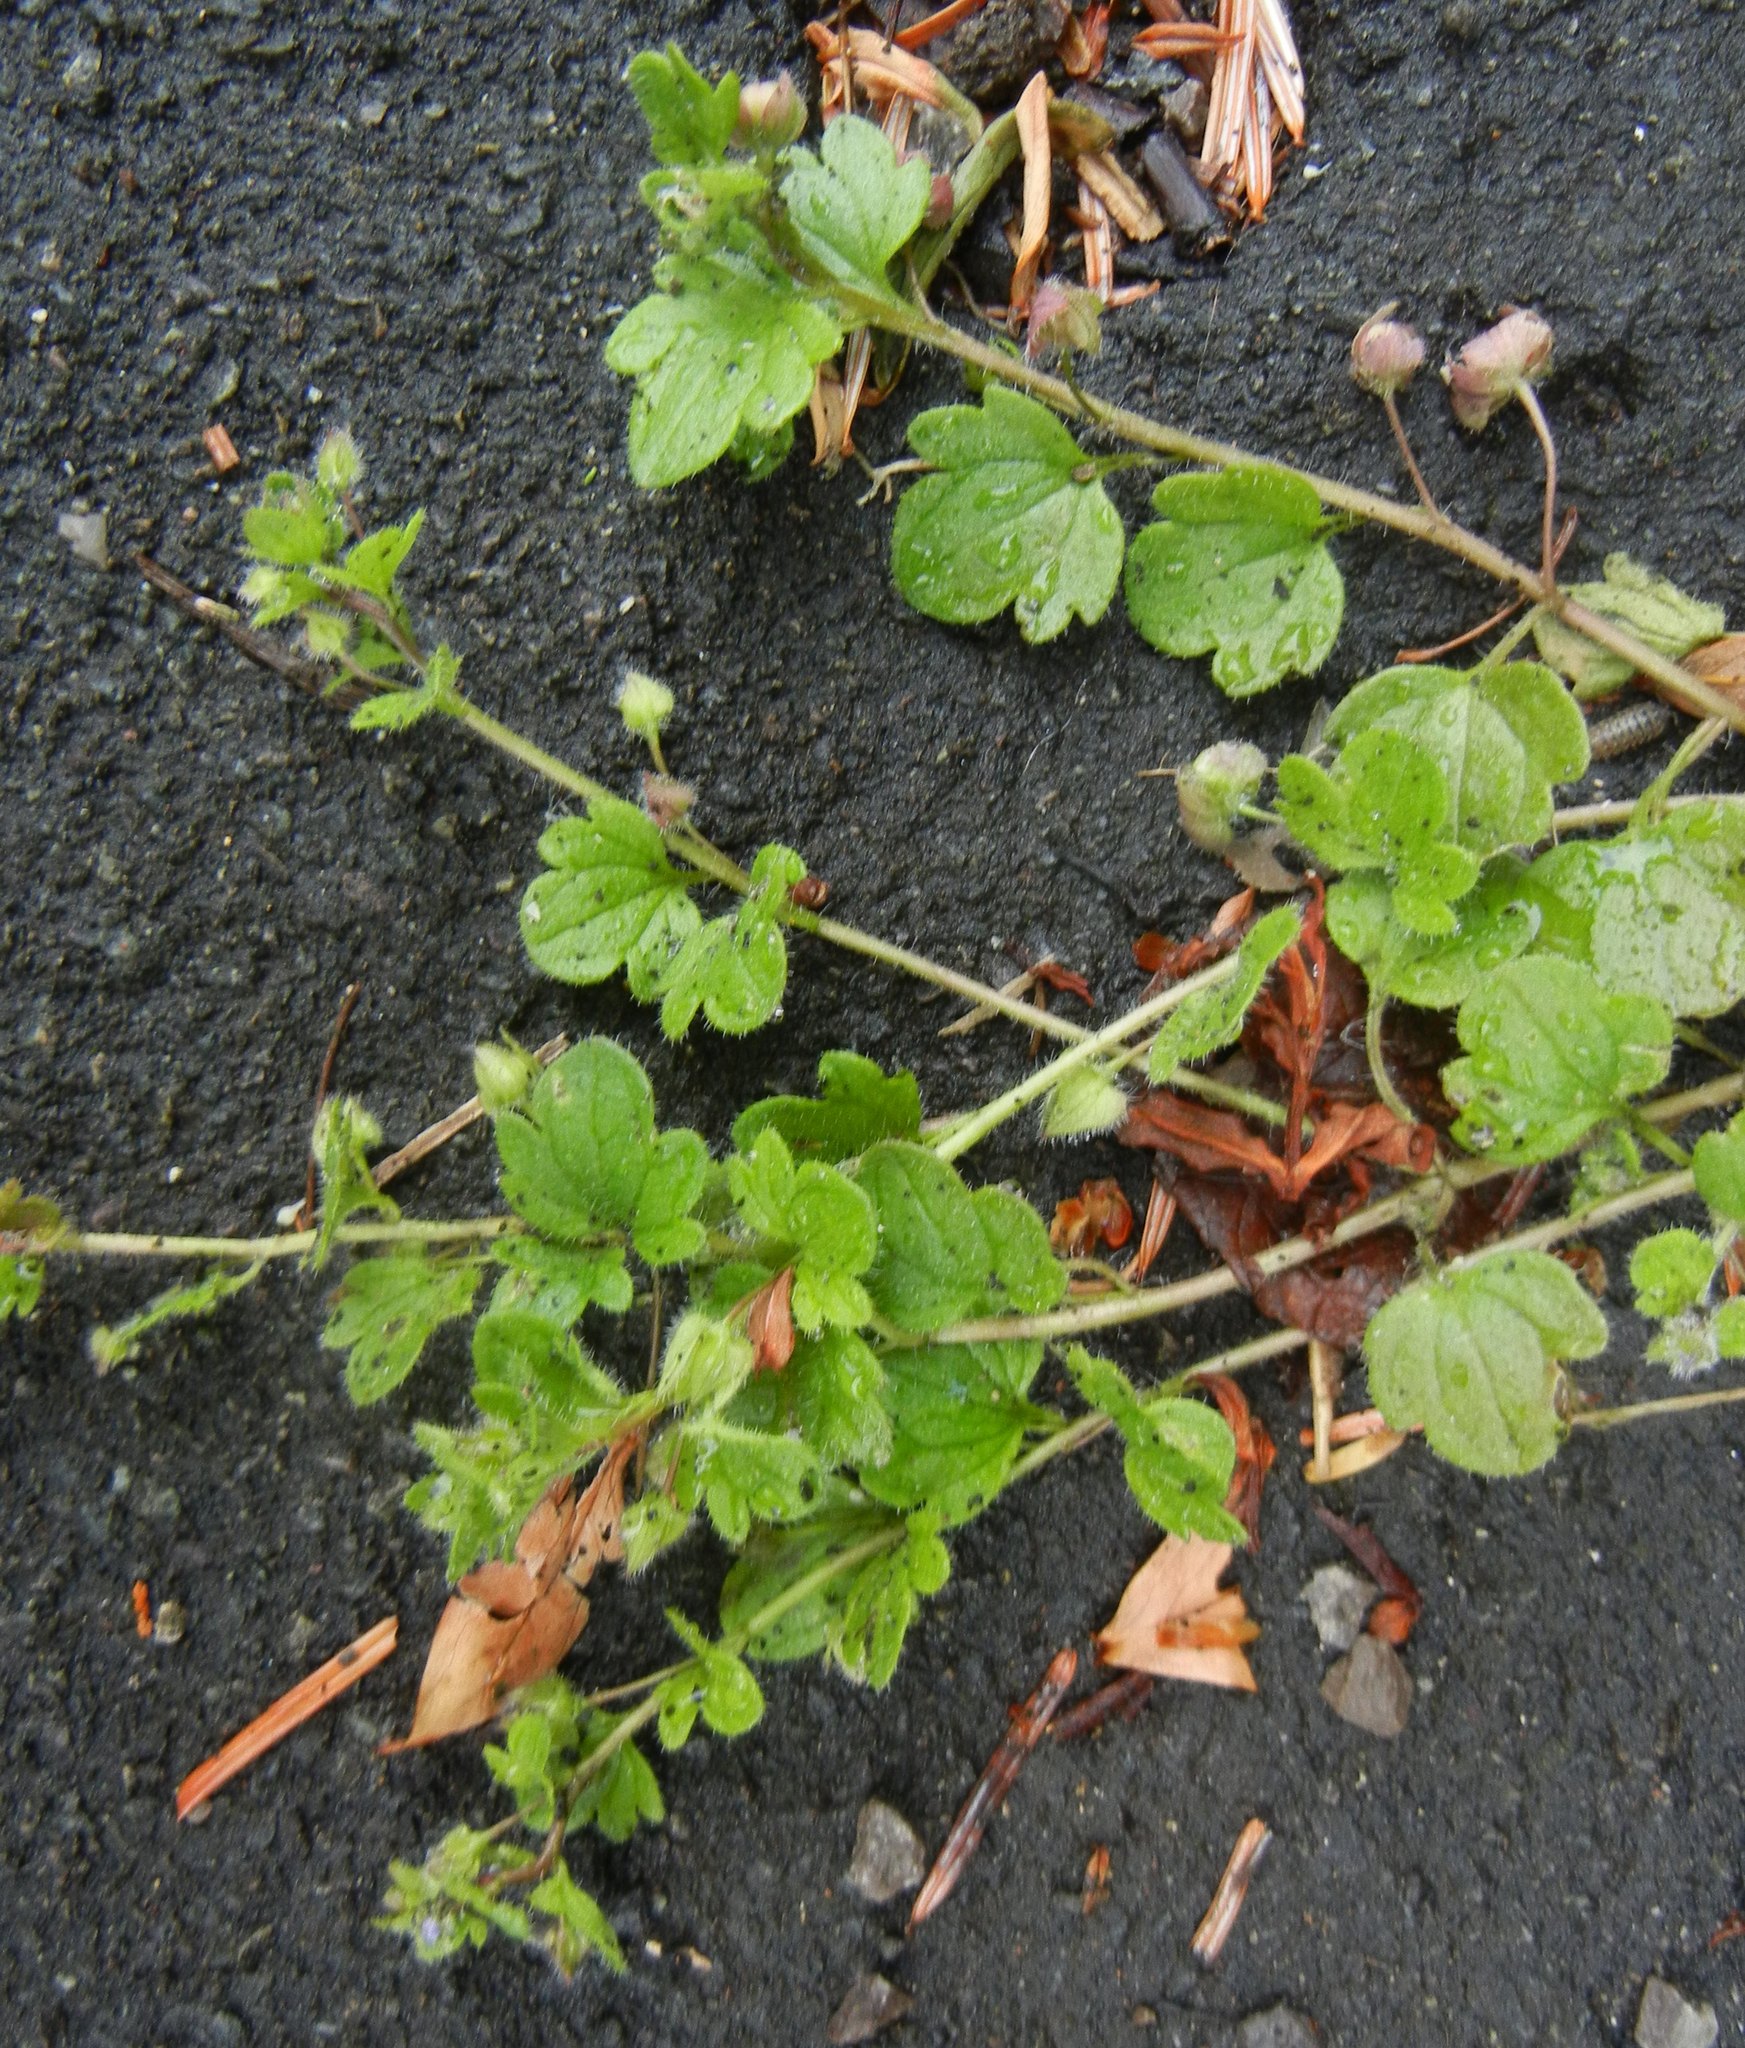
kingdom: Plantae
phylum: Tracheophyta
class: Magnoliopsida
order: Lamiales
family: Plantaginaceae
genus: Veronica
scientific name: Veronica hederifolia
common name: Ivy-leaved speedwell
